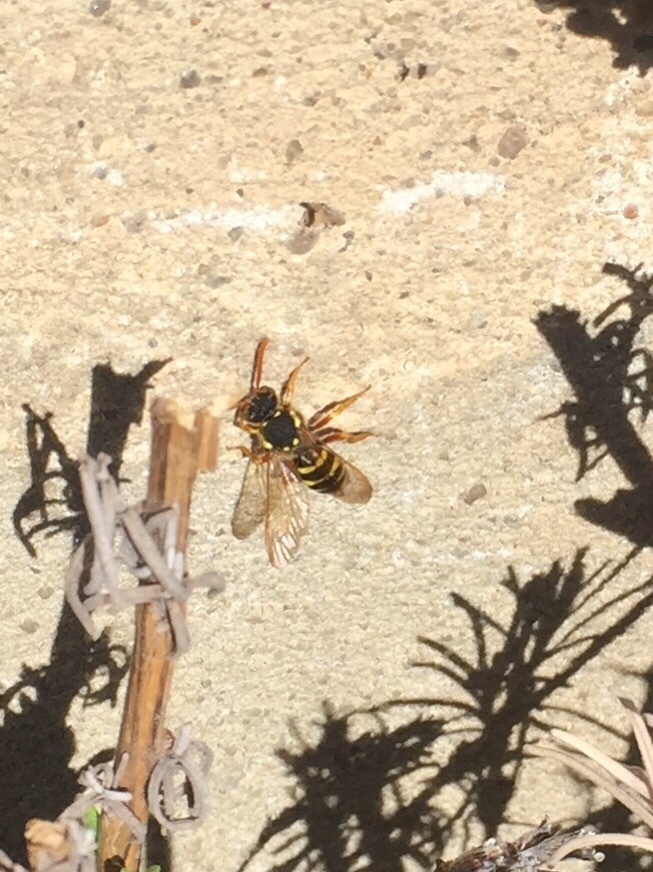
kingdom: Animalia
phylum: Arthropoda
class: Insecta
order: Hymenoptera
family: Apidae
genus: Nomada
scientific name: Nomada goodeniana
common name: Gooden's nomad bee
